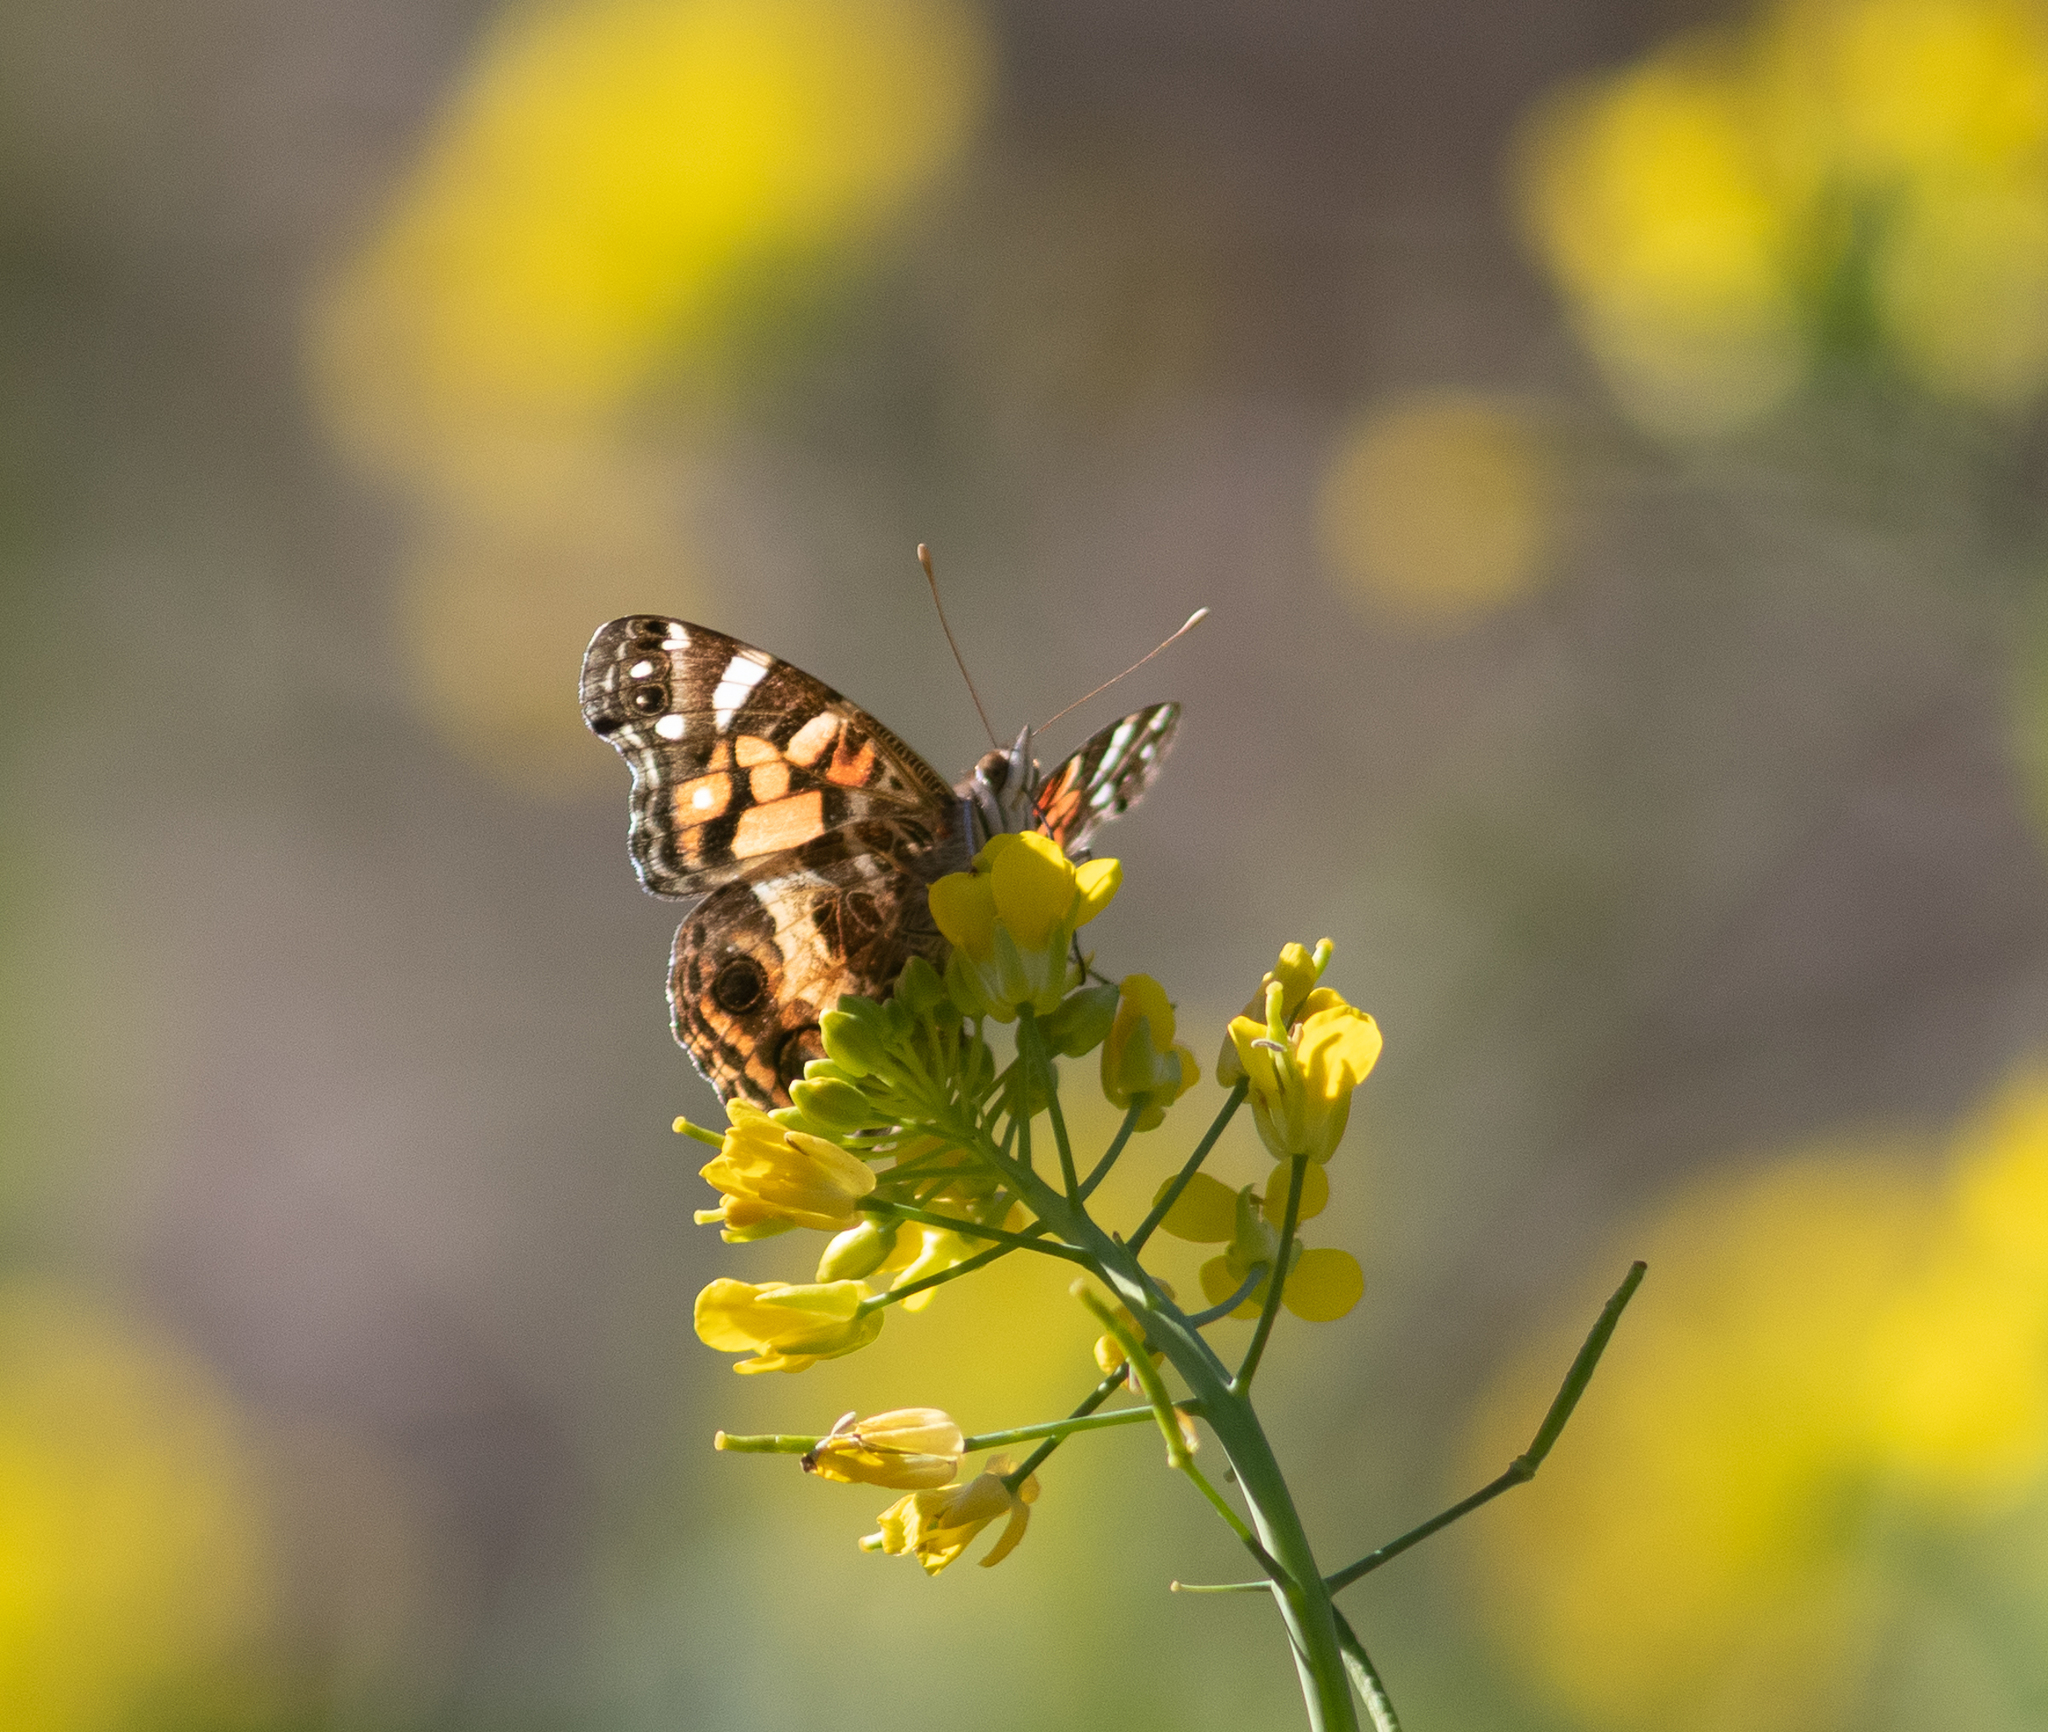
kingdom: Animalia
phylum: Arthropoda
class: Insecta
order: Lepidoptera
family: Nymphalidae
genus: Vanessa
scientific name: Vanessa virginiensis
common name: American lady
